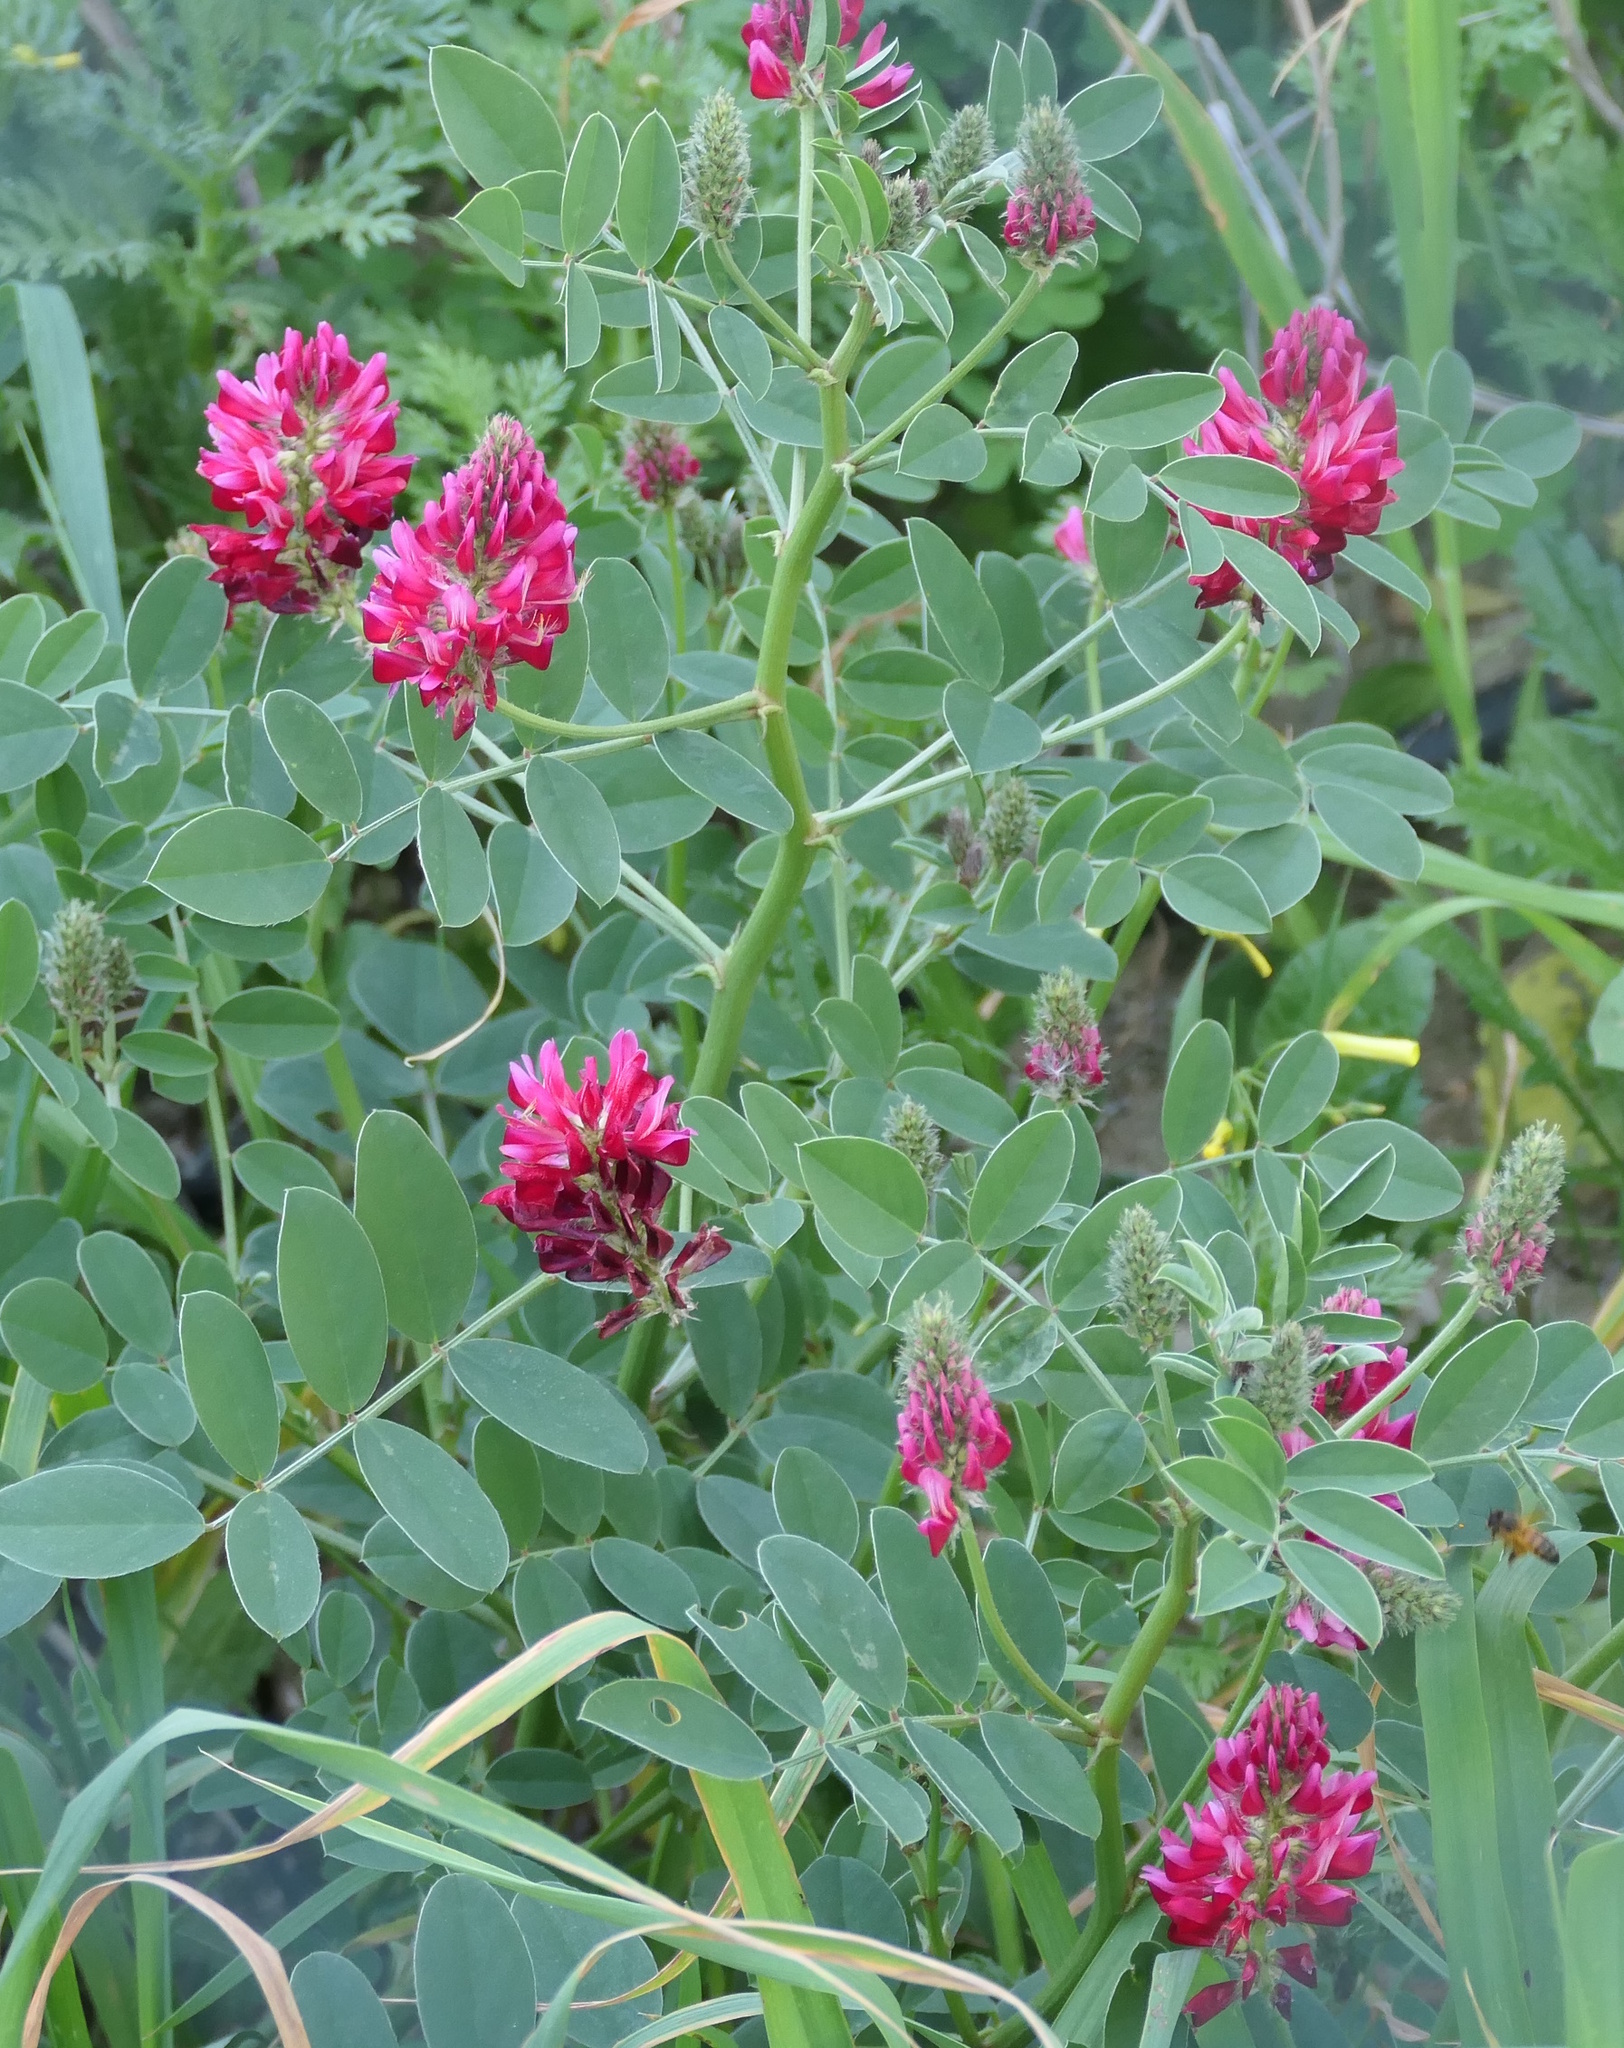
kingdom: Plantae
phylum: Tracheophyta
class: Magnoliopsida
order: Fabales
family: Fabaceae
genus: Sulla
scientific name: Sulla coronaria
